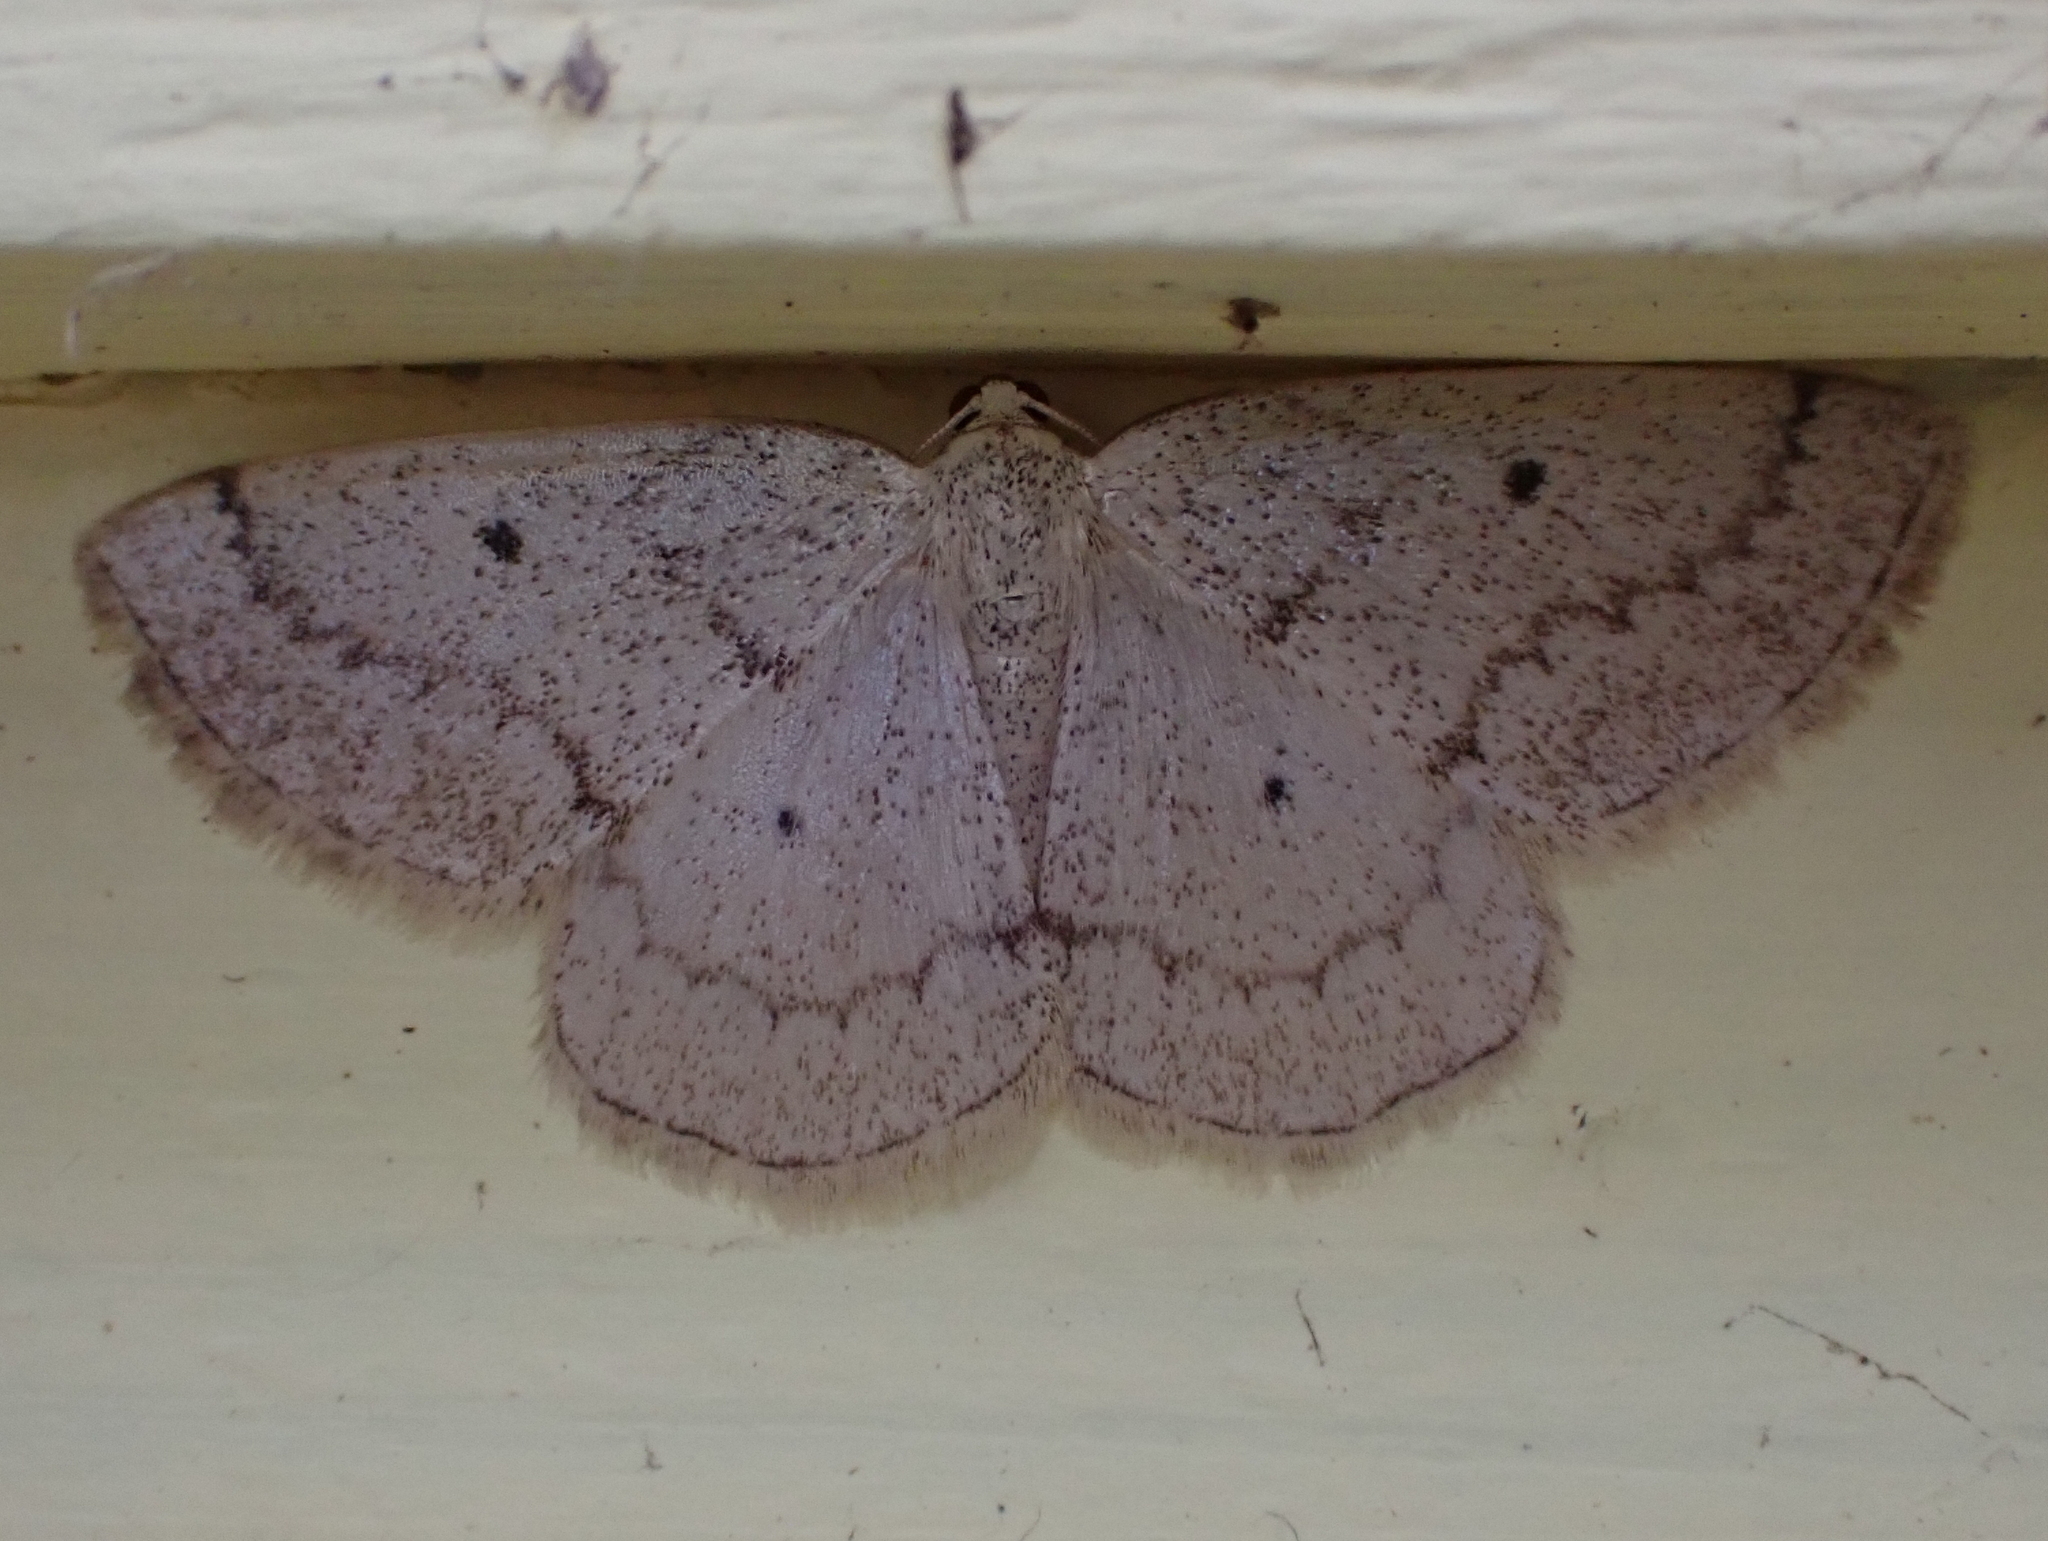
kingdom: Animalia
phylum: Arthropoda
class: Insecta
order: Lepidoptera
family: Geometridae
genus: Lomographa
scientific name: Lomographa glomeraria
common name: Gray spring moth
